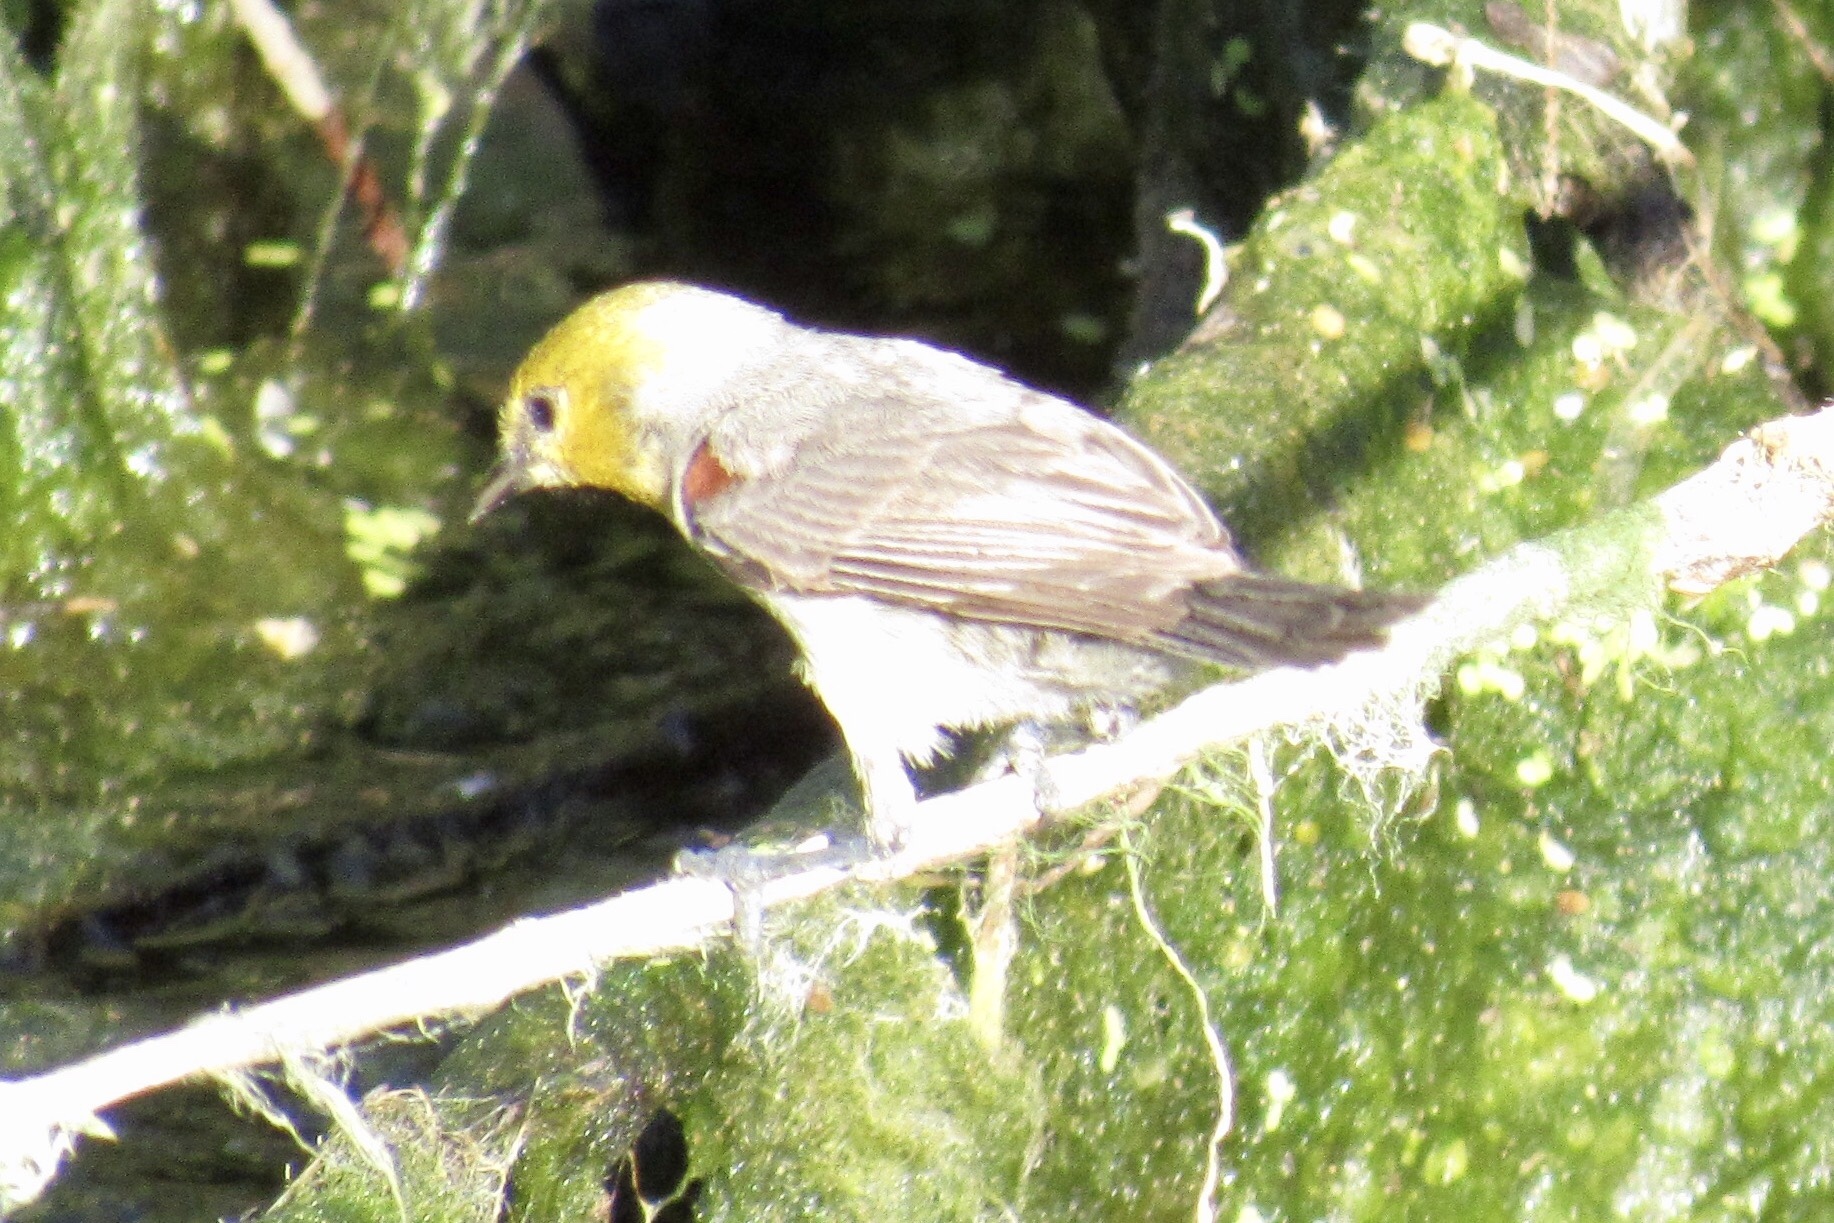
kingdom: Animalia
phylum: Chordata
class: Aves
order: Passeriformes
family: Remizidae
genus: Auriparus
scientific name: Auriparus flaviceps
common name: Verdin
